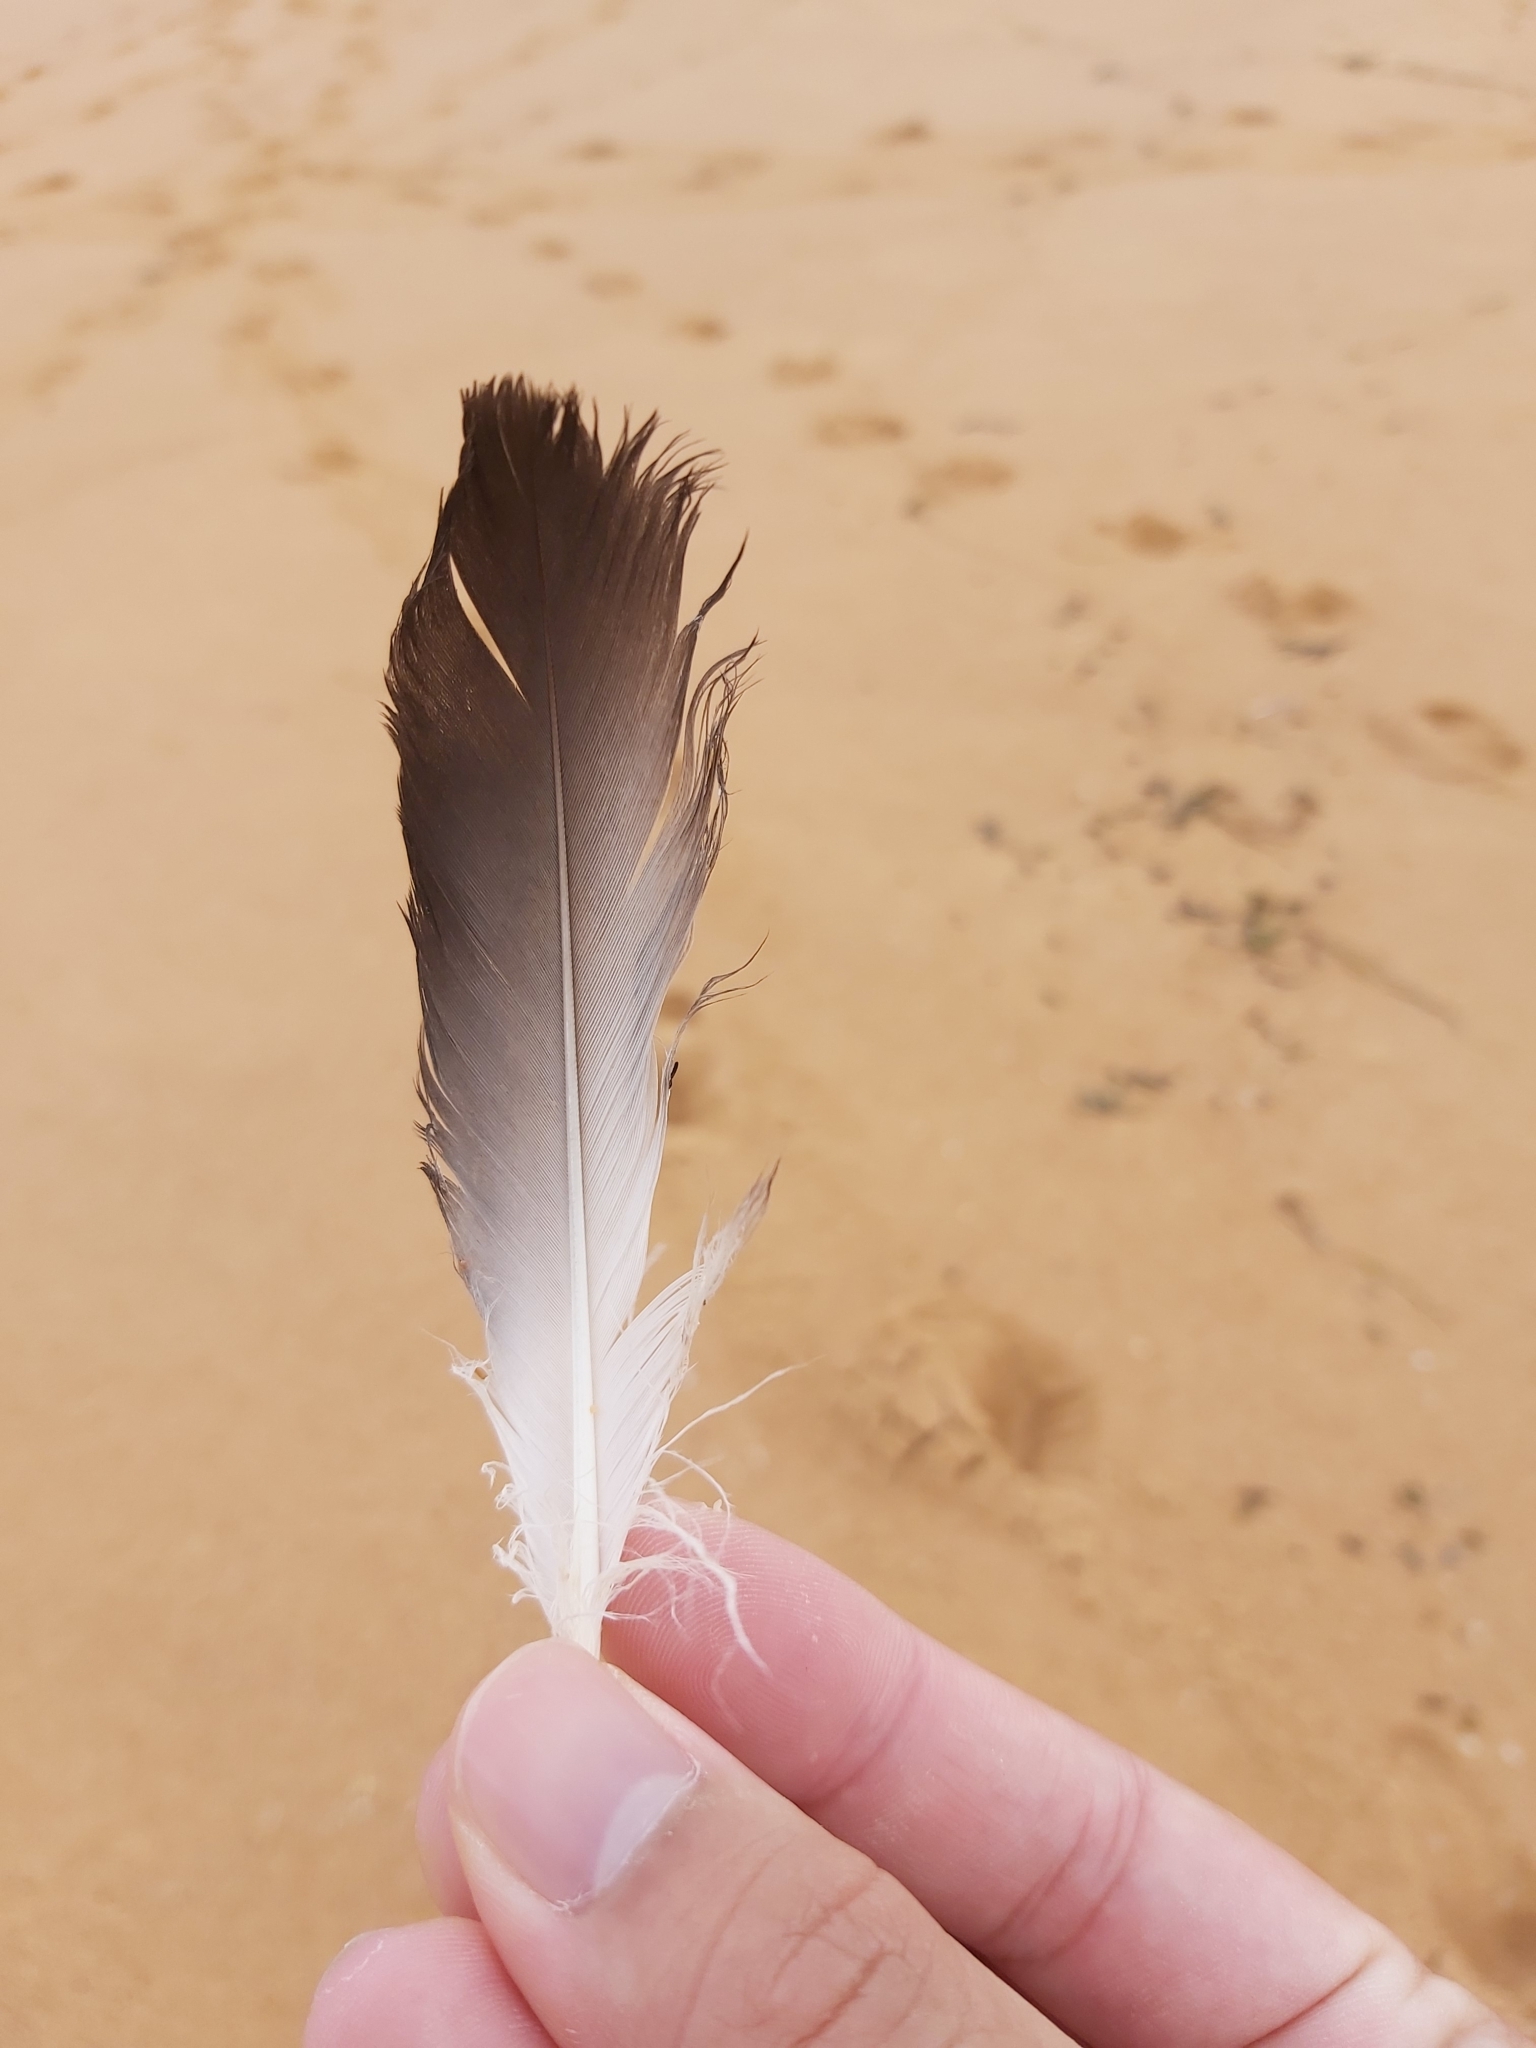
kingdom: Animalia
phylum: Chordata
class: Aves
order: Suliformes
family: Sulidae
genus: Morus
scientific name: Morus serrator
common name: Australasian gannet
